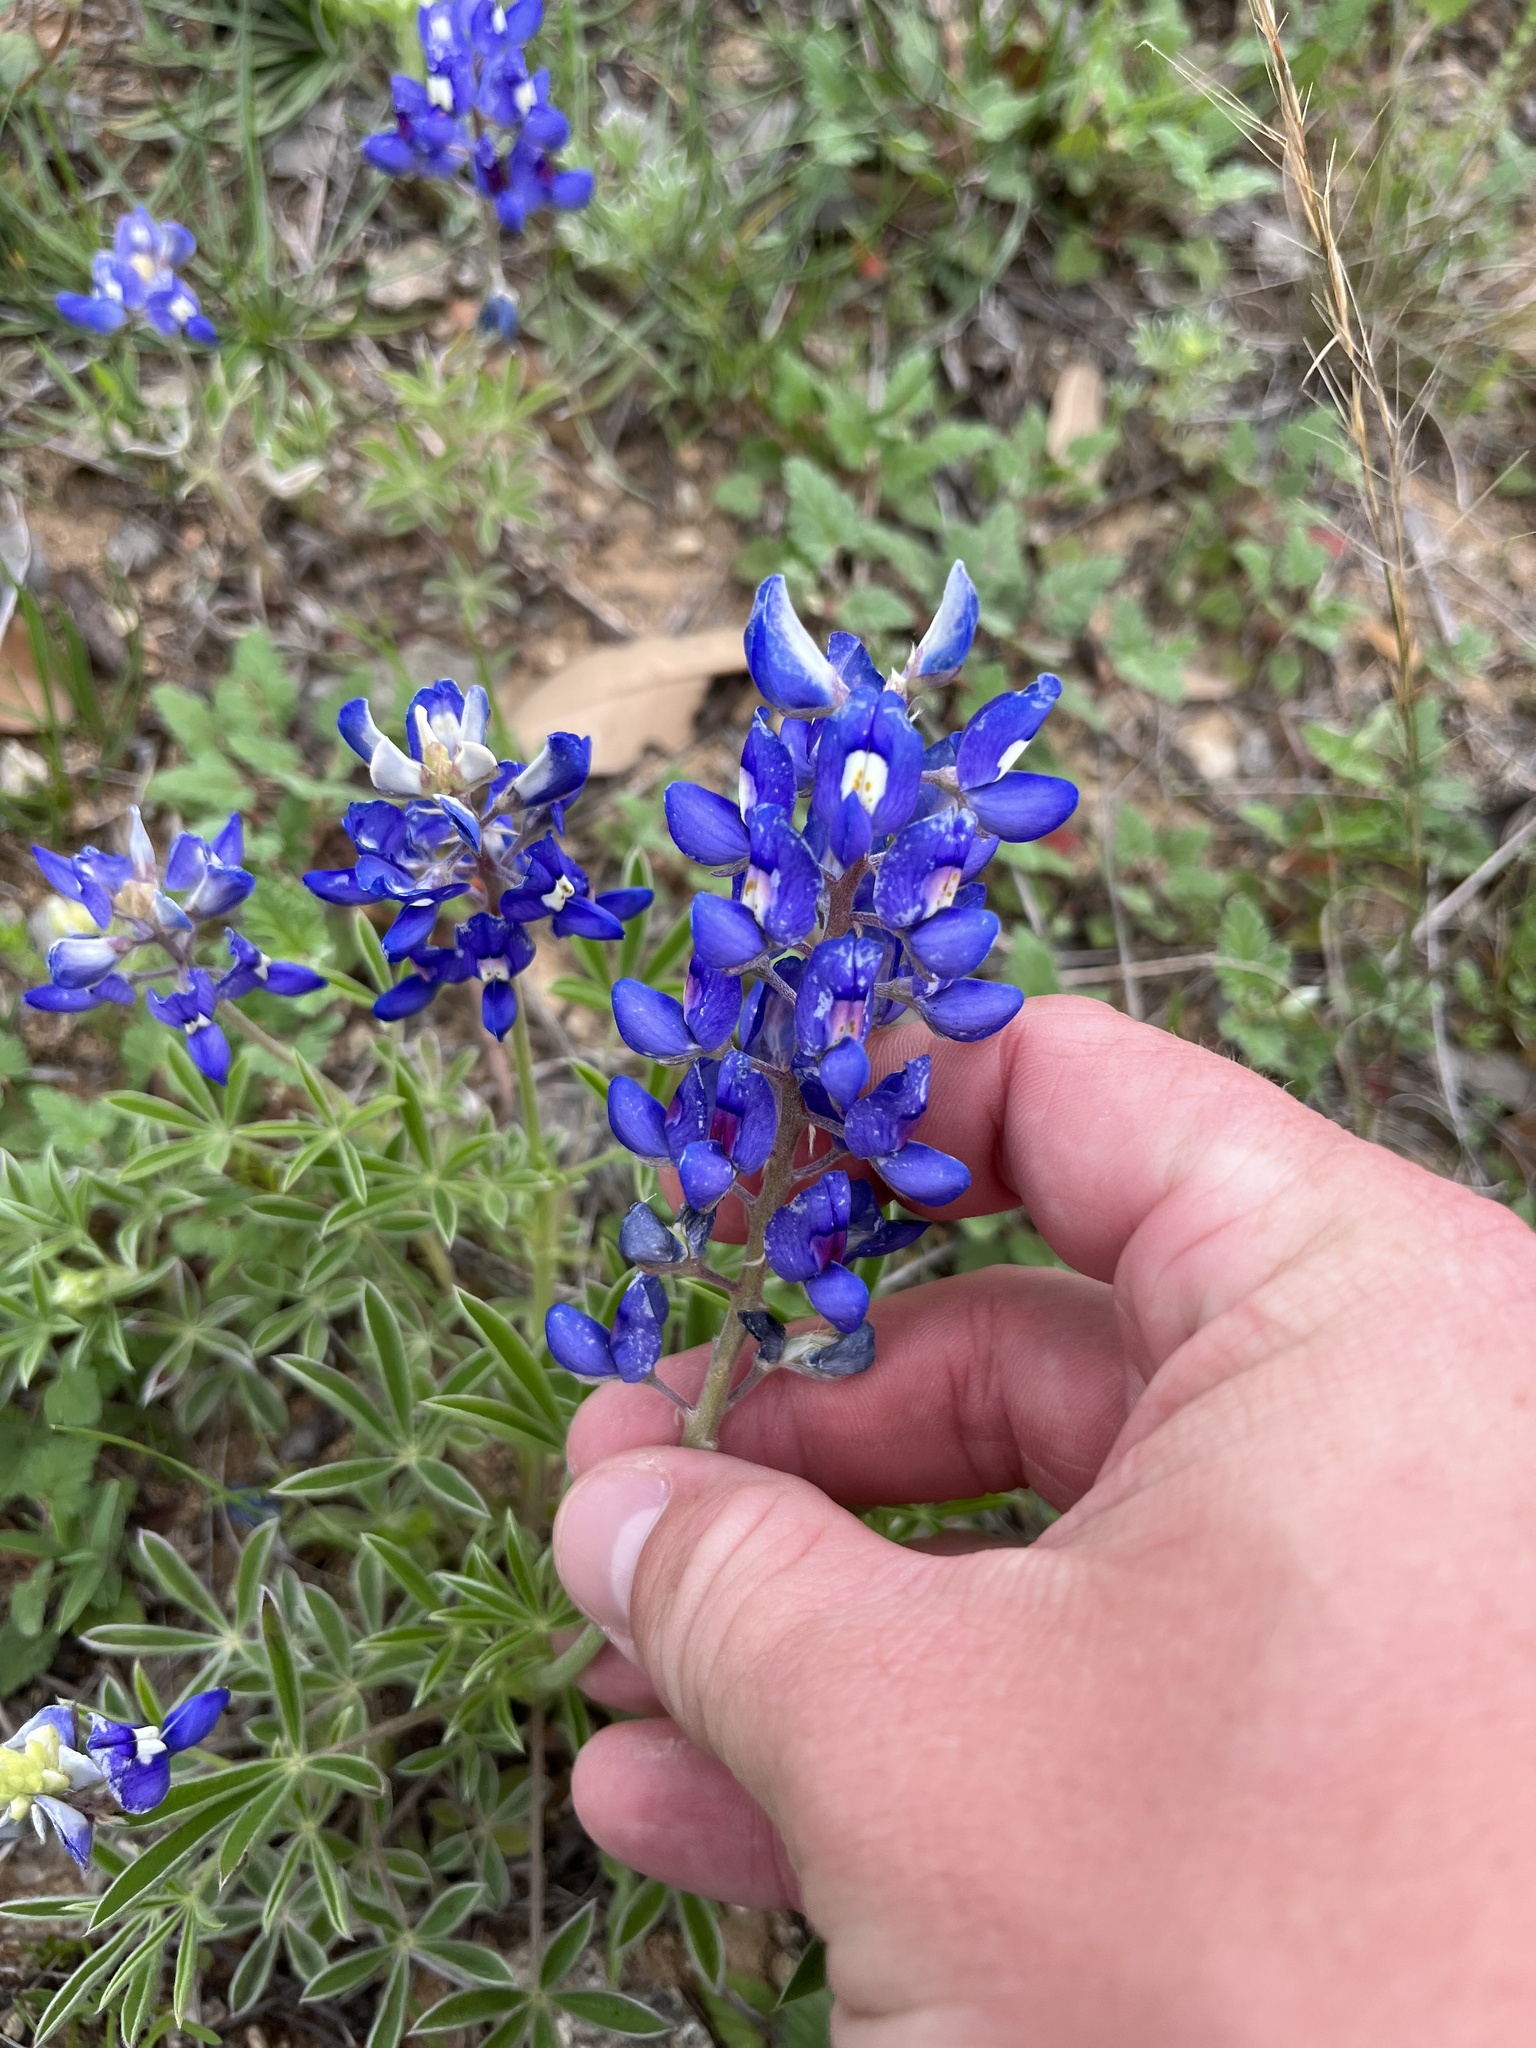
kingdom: Plantae
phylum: Tracheophyta
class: Magnoliopsida
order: Fabales
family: Fabaceae
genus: Lupinus
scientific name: Lupinus texensis
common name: Texas bluebonnet
